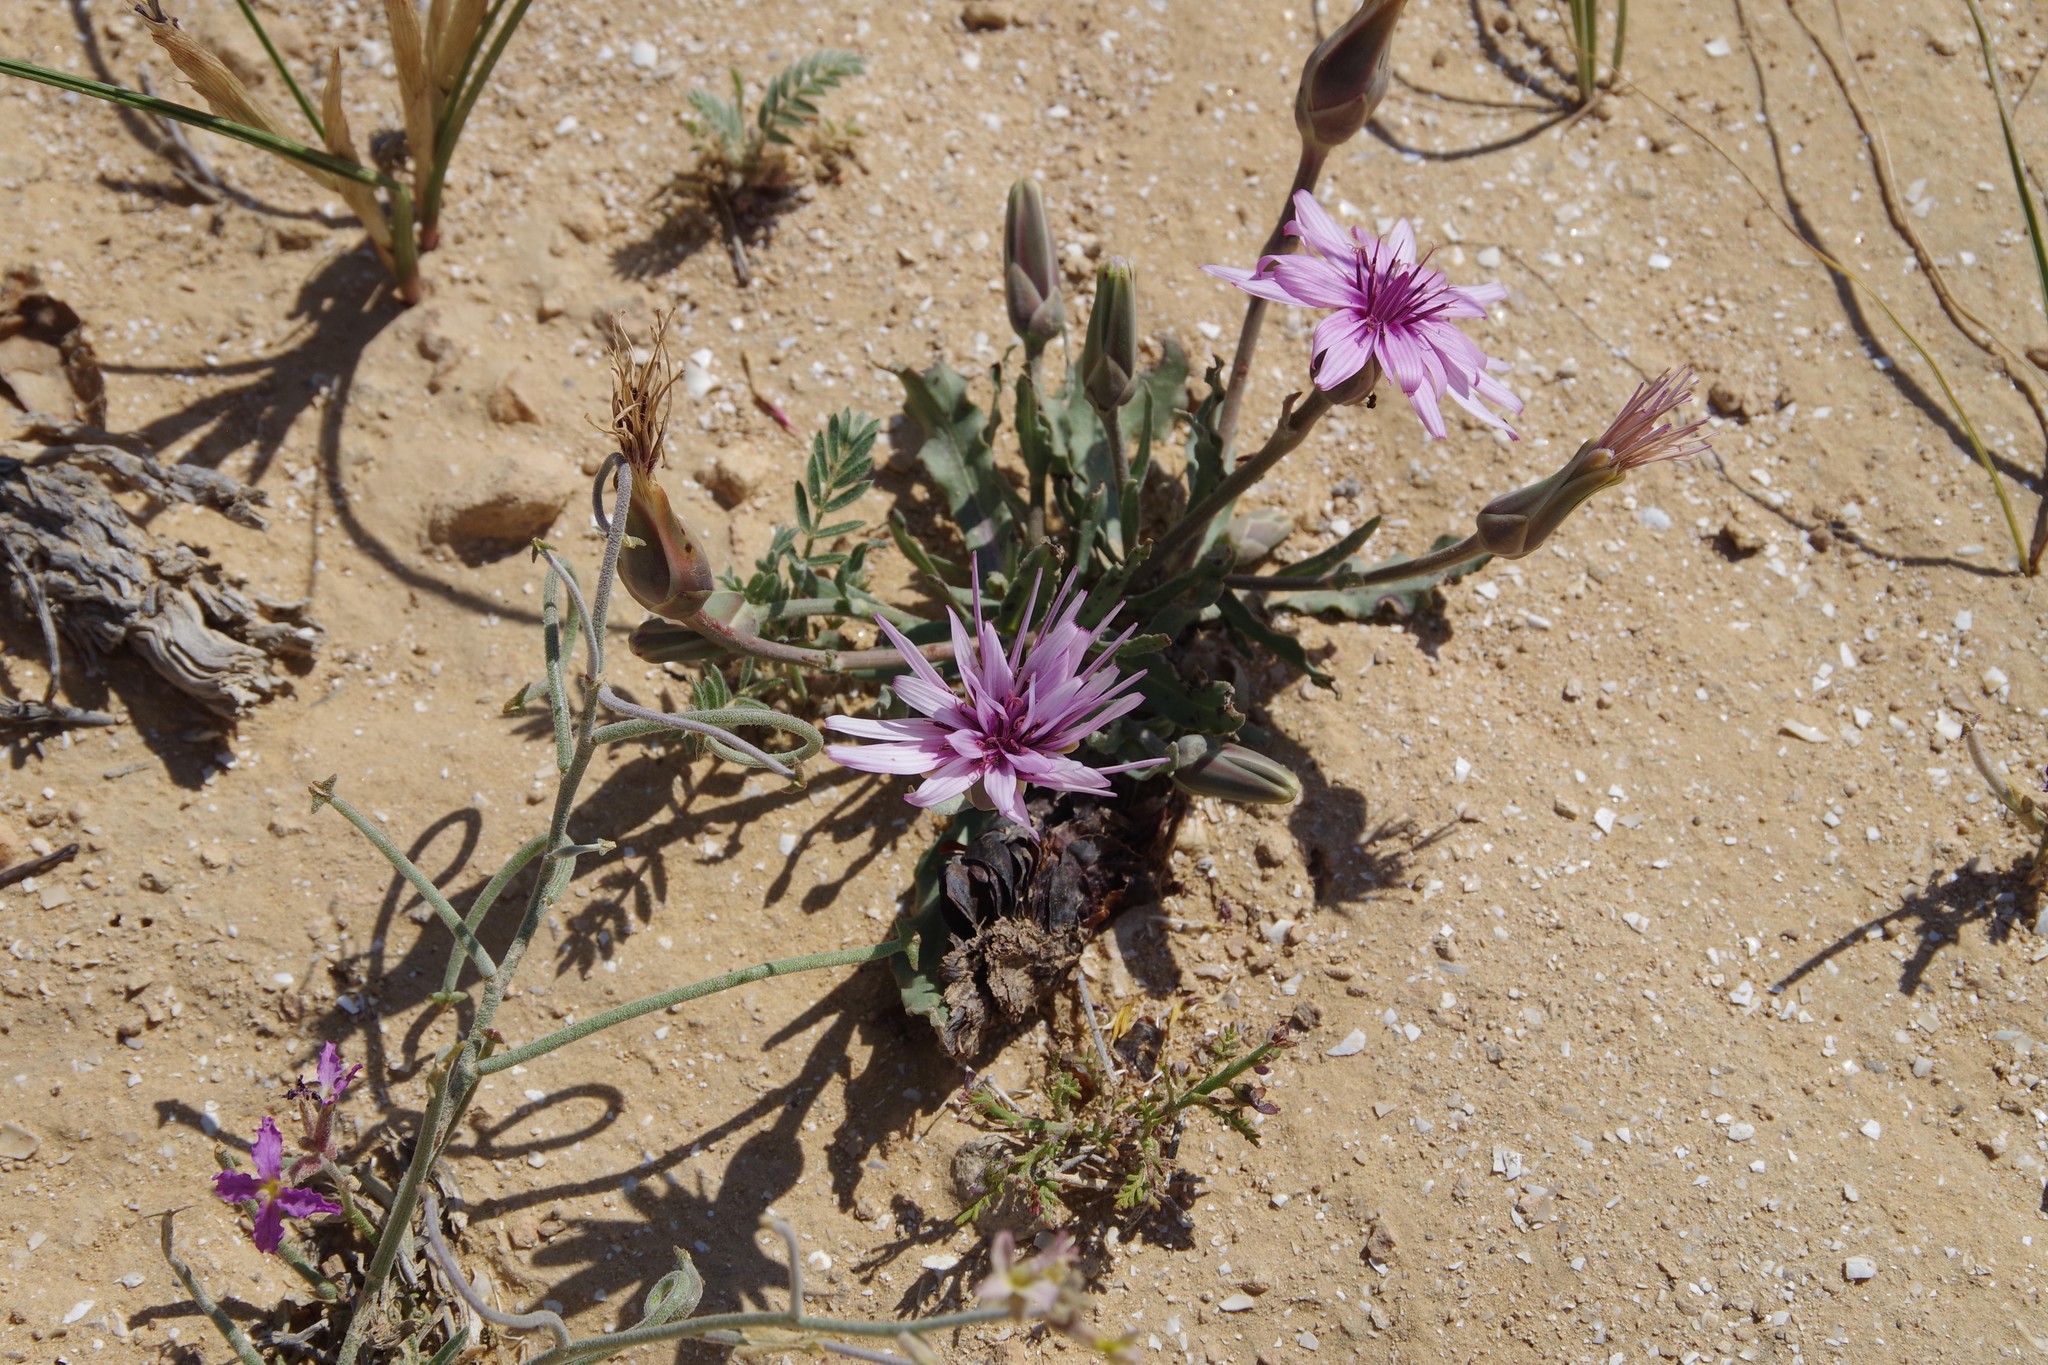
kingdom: Plantae
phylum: Tracheophyta
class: Magnoliopsida
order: Asterales
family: Asteraceae
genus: Tragopogon
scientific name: Tragopogon collinus
